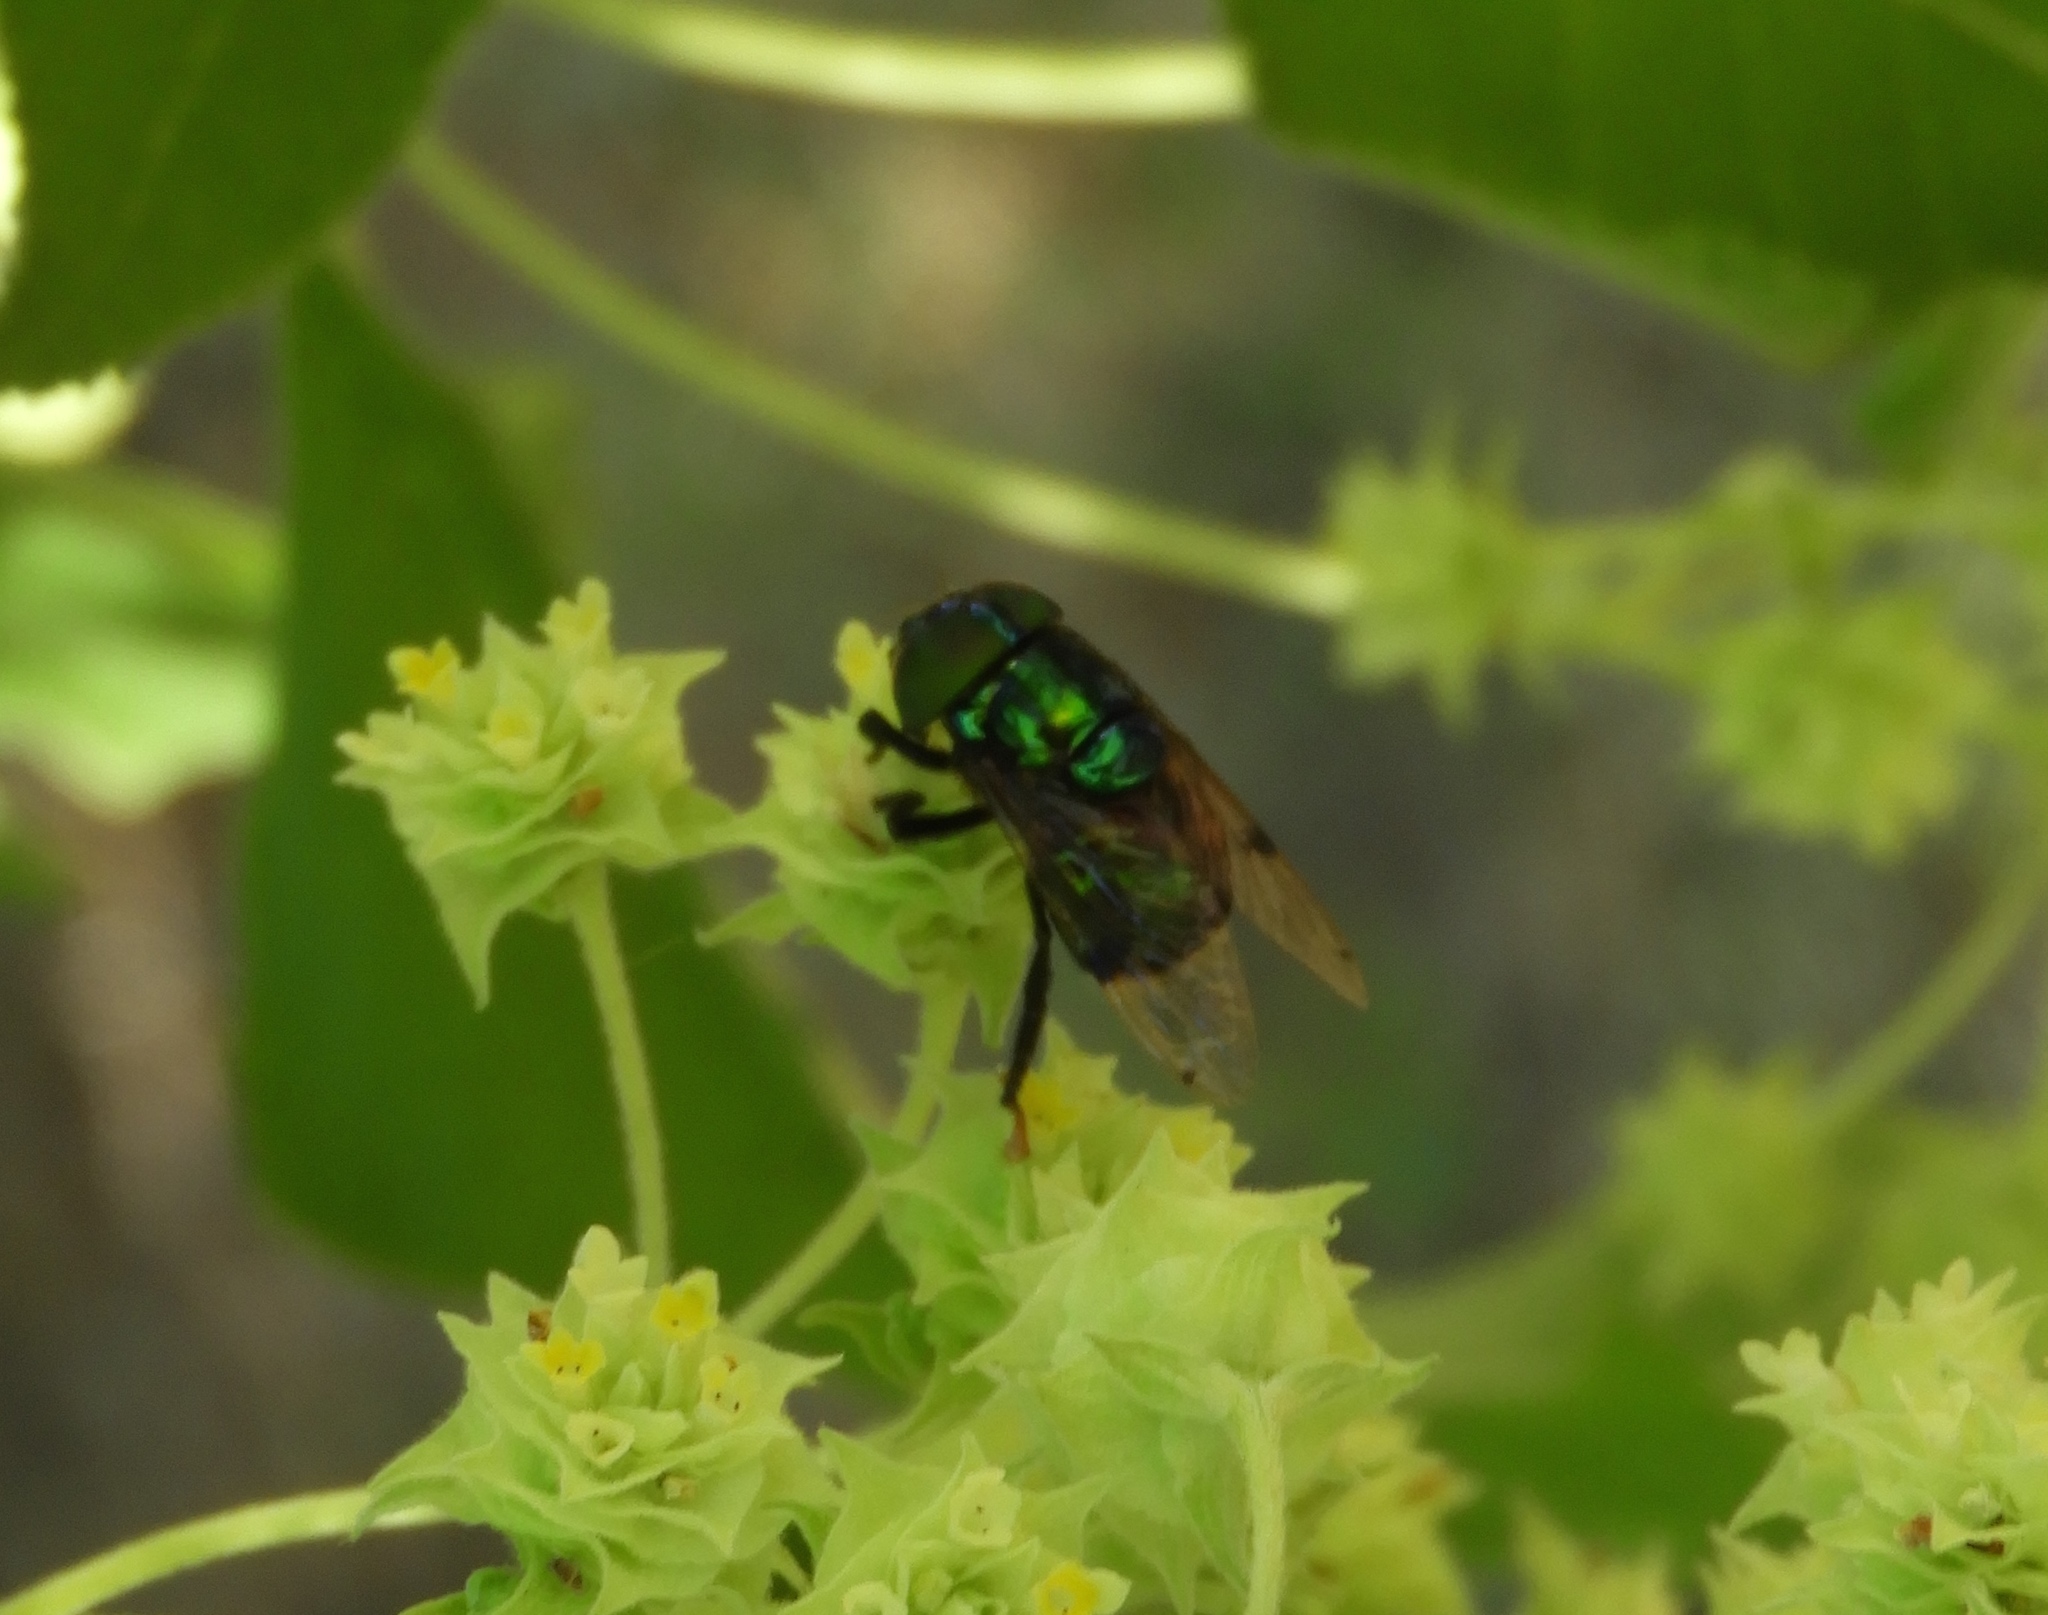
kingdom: Animalia
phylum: Arthropoda
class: Insecta
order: Diptera
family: Syrphidae
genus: Ornidia
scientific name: Ornidia obesa
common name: Syrphid fly
